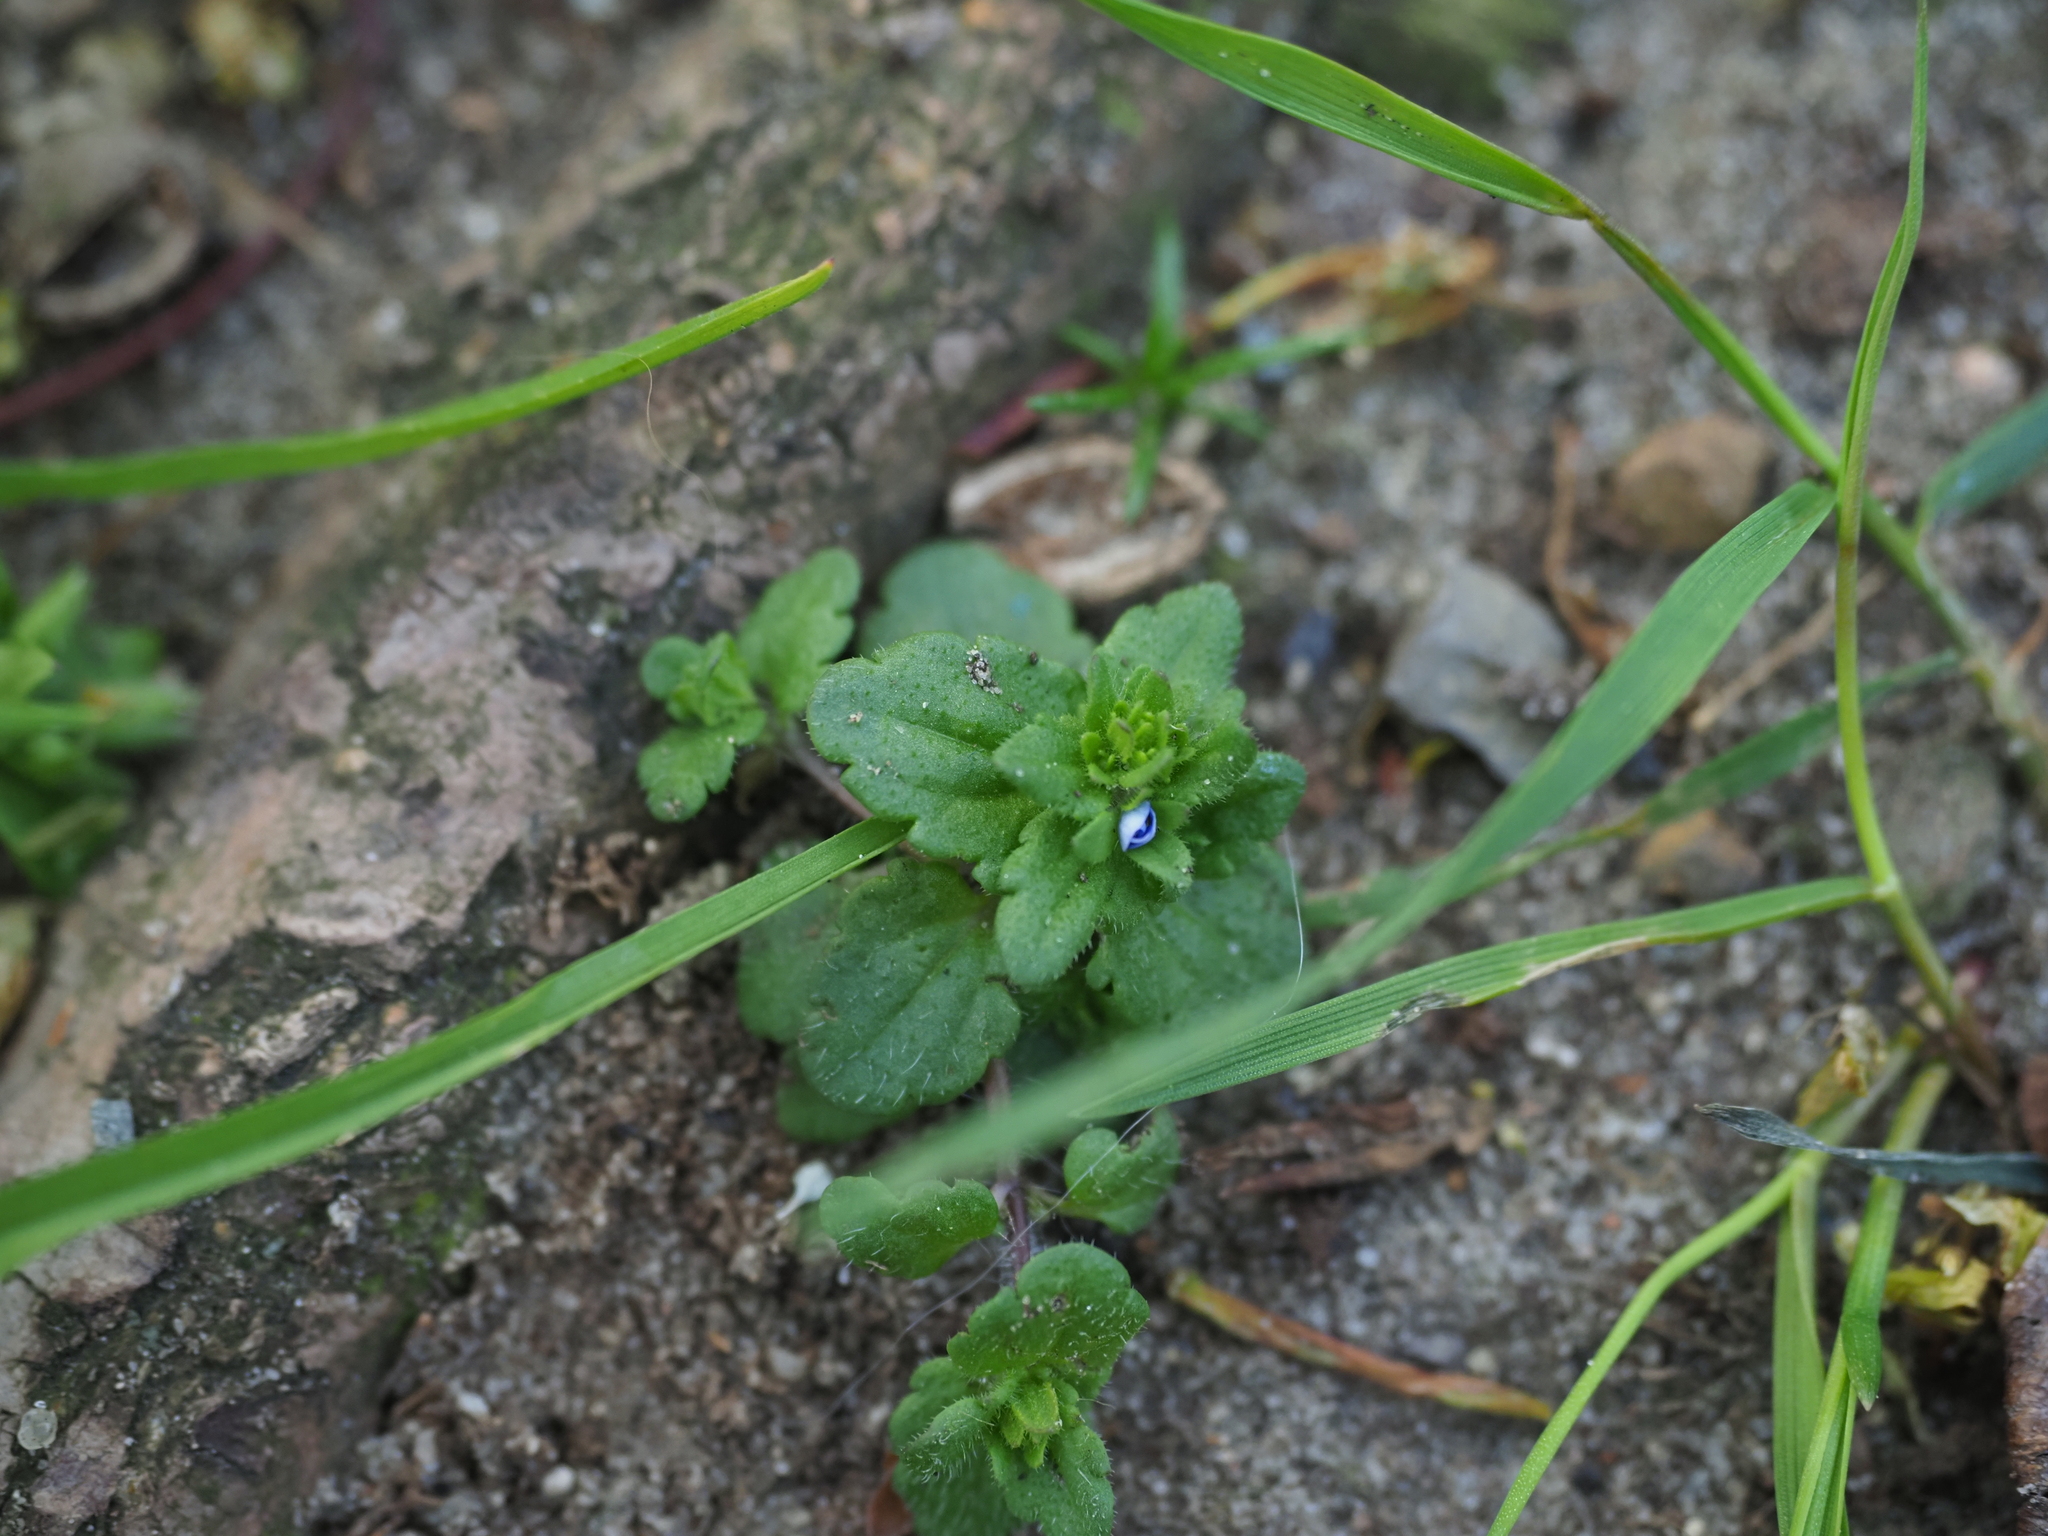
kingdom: Plantae
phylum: Tracheophyta
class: Magnoliopsida
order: Lamiales
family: Plantaginaceae
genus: Veronica
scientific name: Veronica arvensis
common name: Corn speedwell
